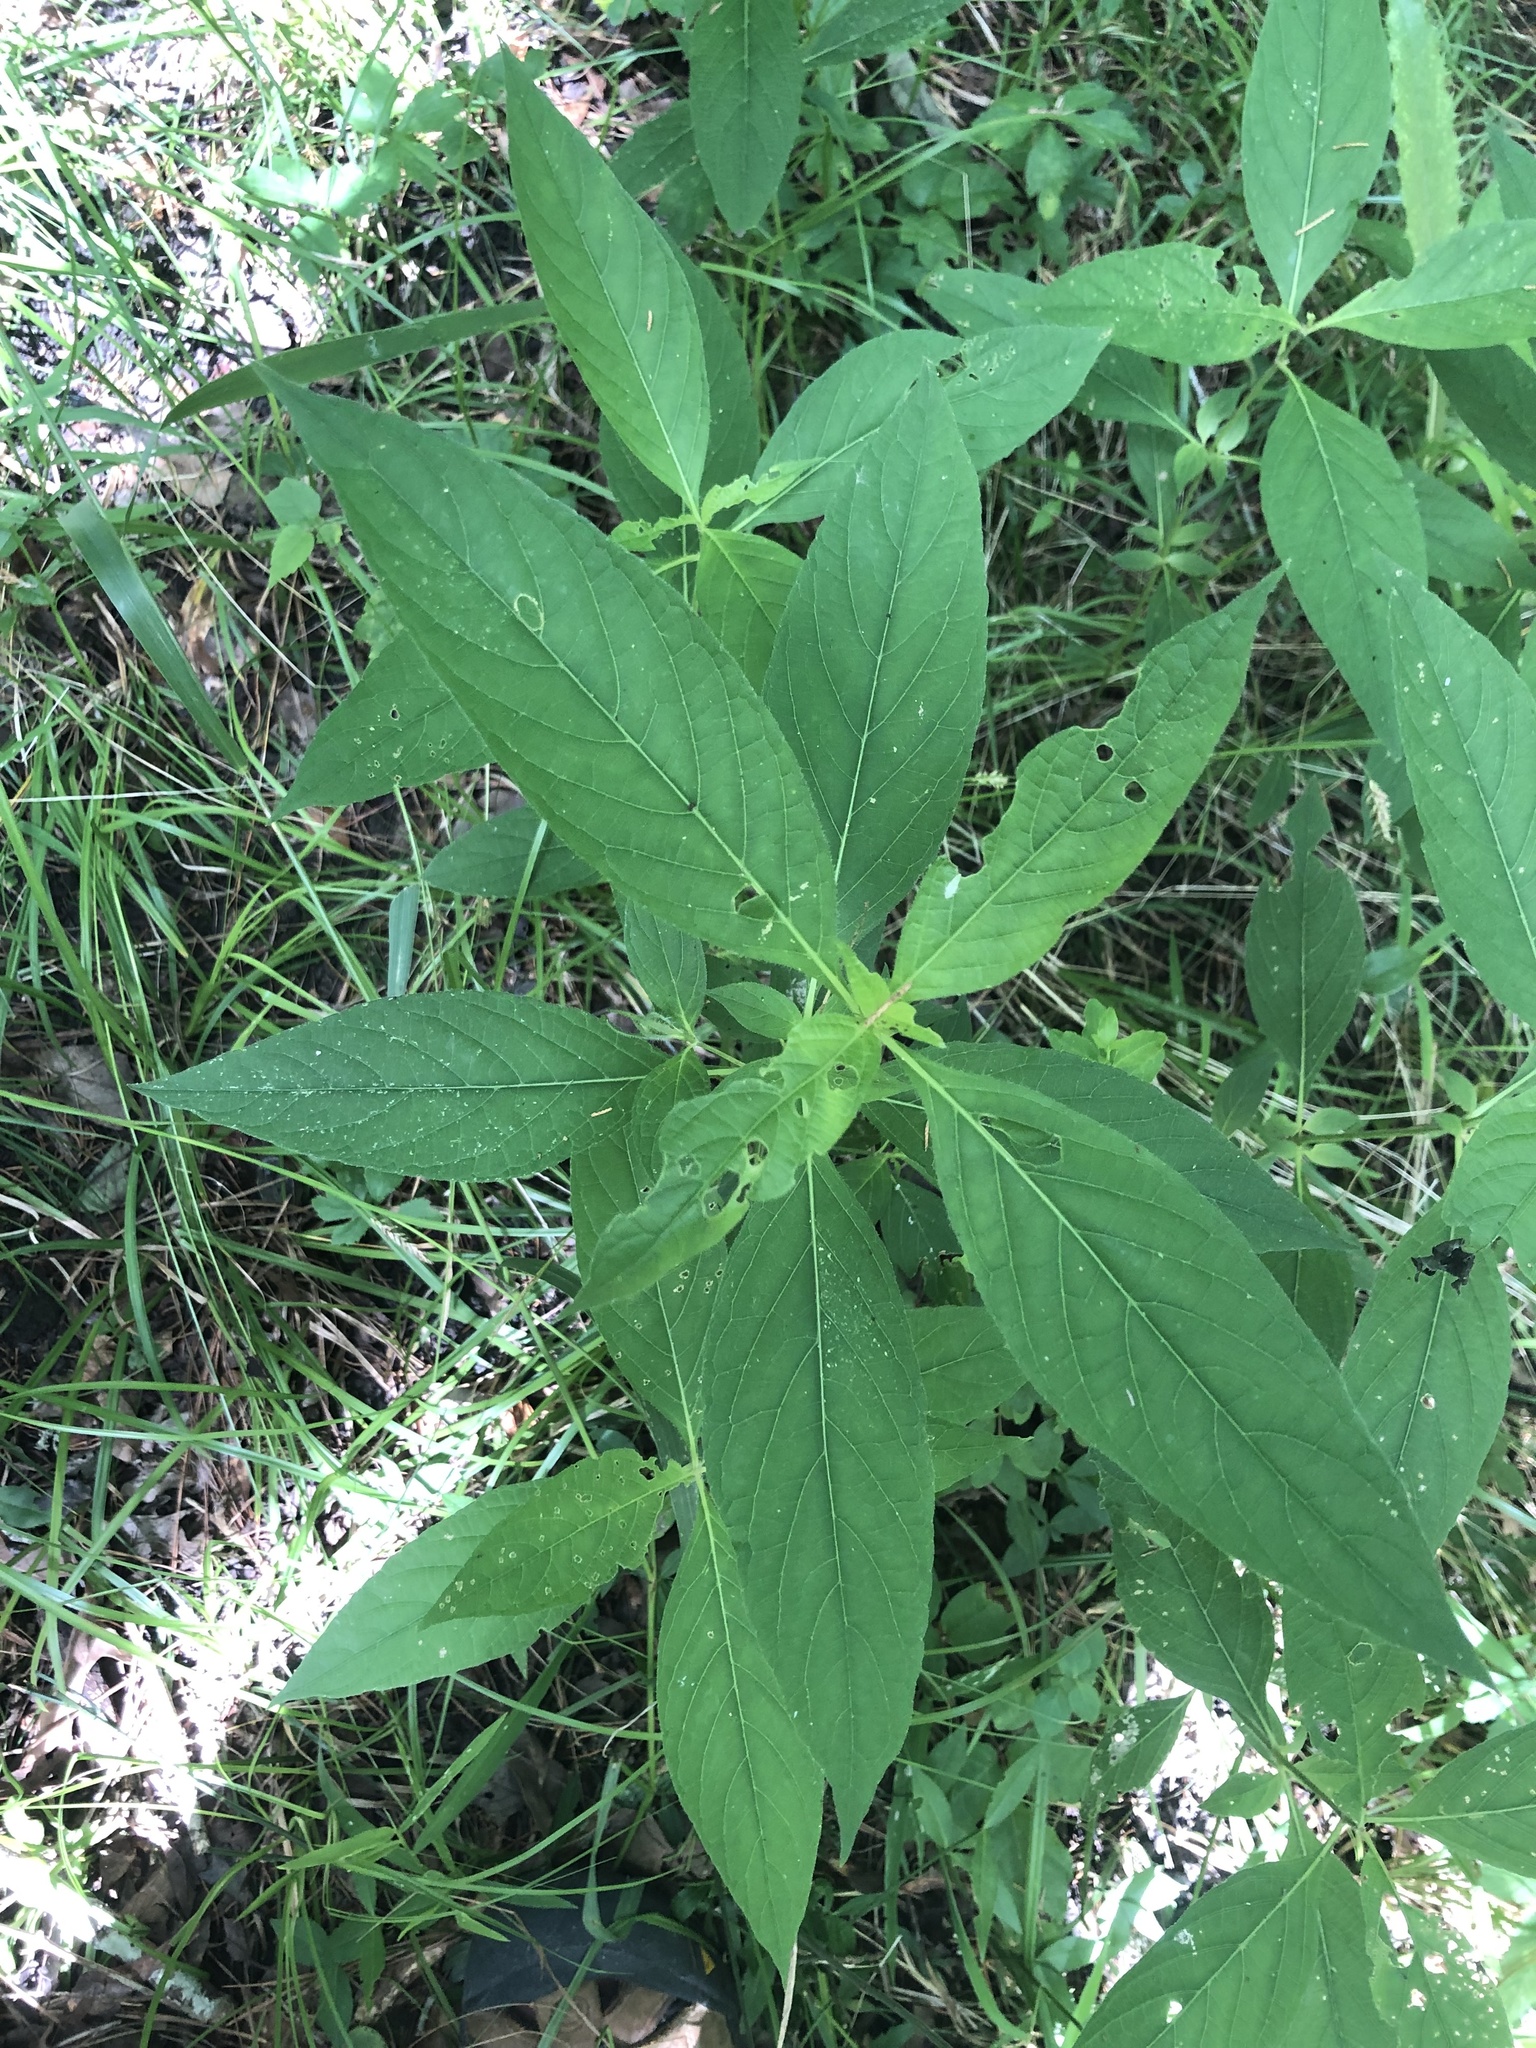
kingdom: Plantae
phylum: Tracheophyta
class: Magnoliopsida
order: Lamiales
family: Acanthaceae
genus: Ruellia
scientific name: Ruellia strepens
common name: Limestone wild petunia
